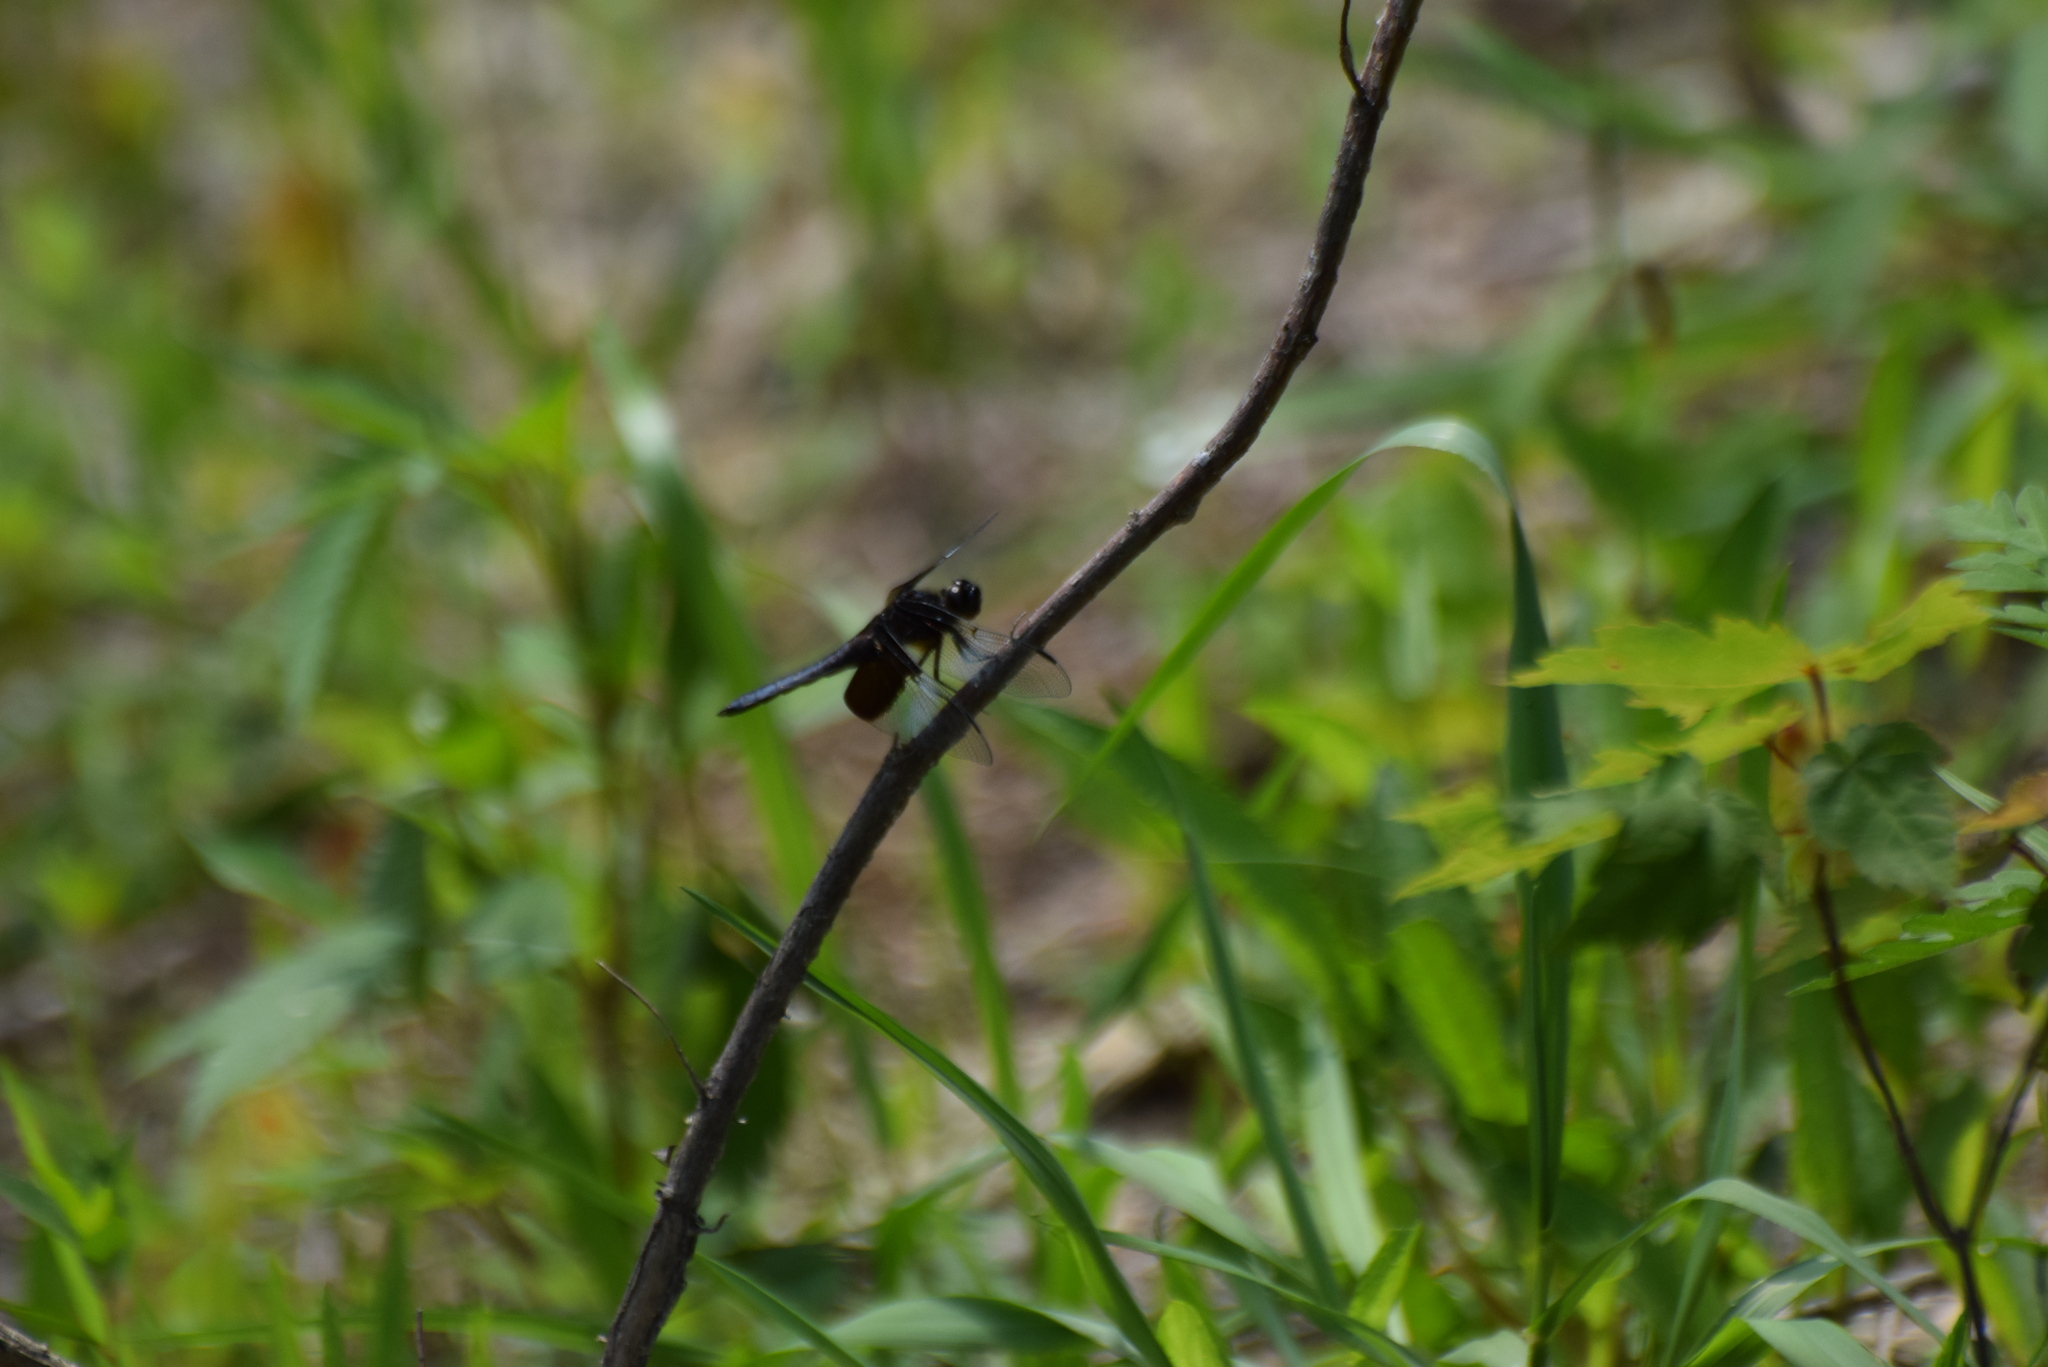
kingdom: Animalia
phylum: Arthropoda
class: Insecta
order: Odonata
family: Libellulidae
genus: Libellula
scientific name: Libellula luctuosa
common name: Widow skimmer
